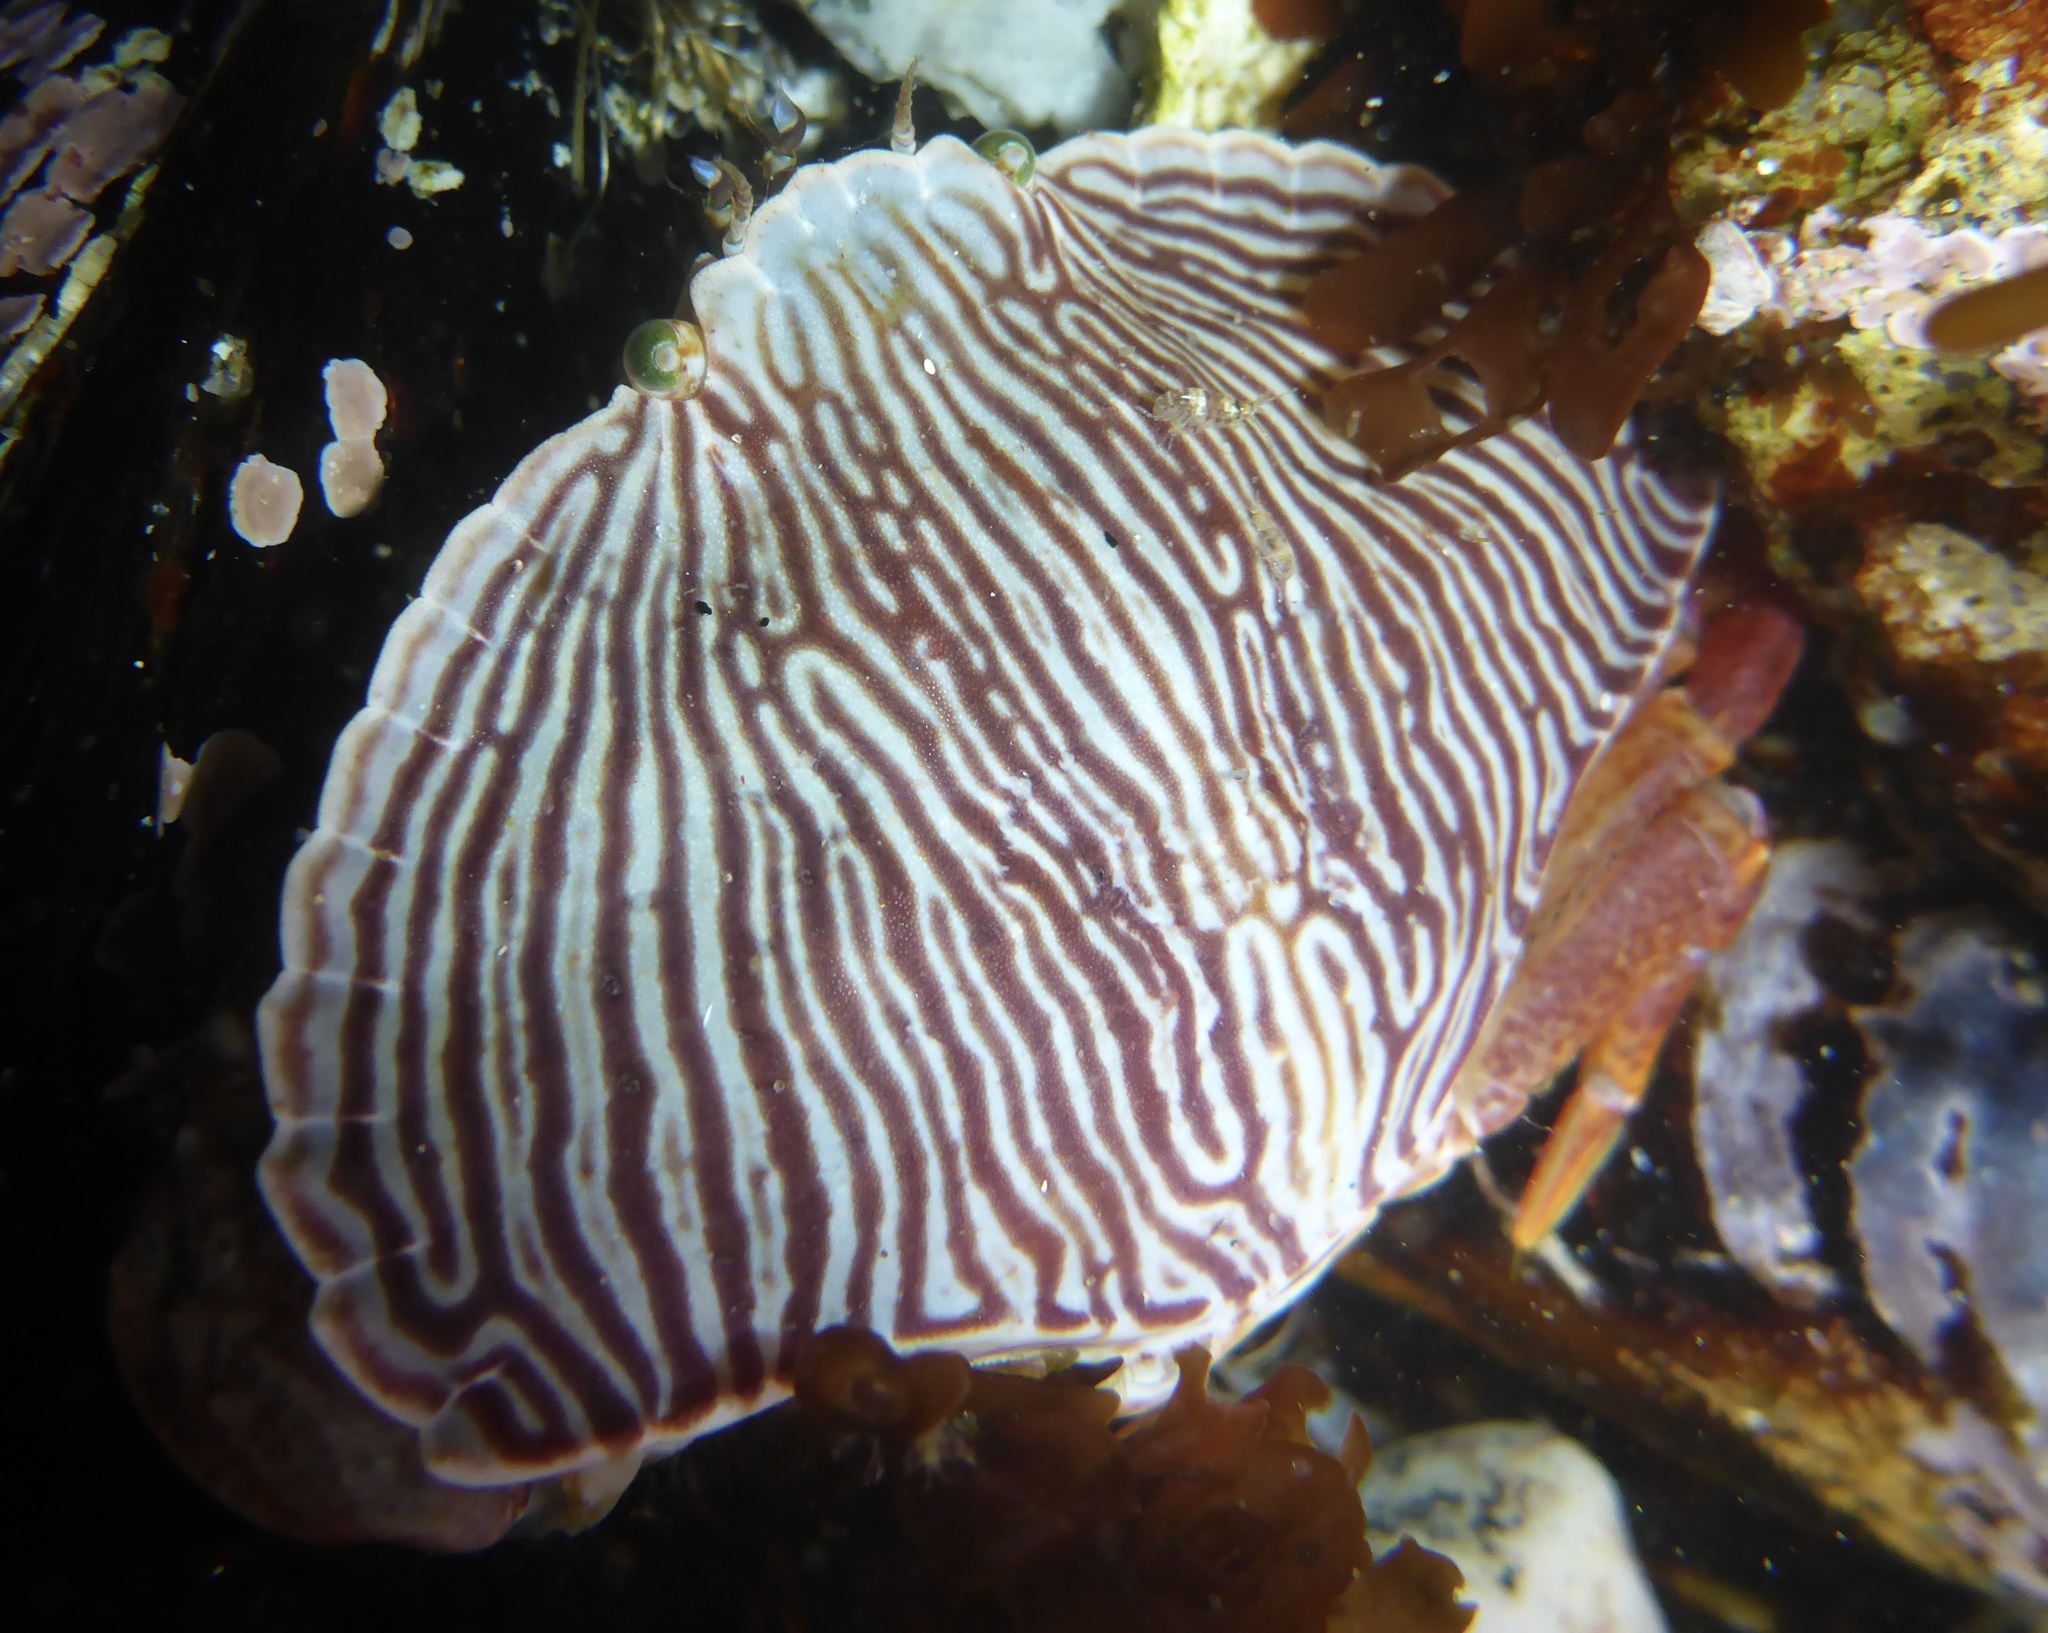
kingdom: Animalia
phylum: Arthropoda
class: Malacostraca
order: Decapoda
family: Cancridae
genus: Cancer
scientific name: Cancer productus
